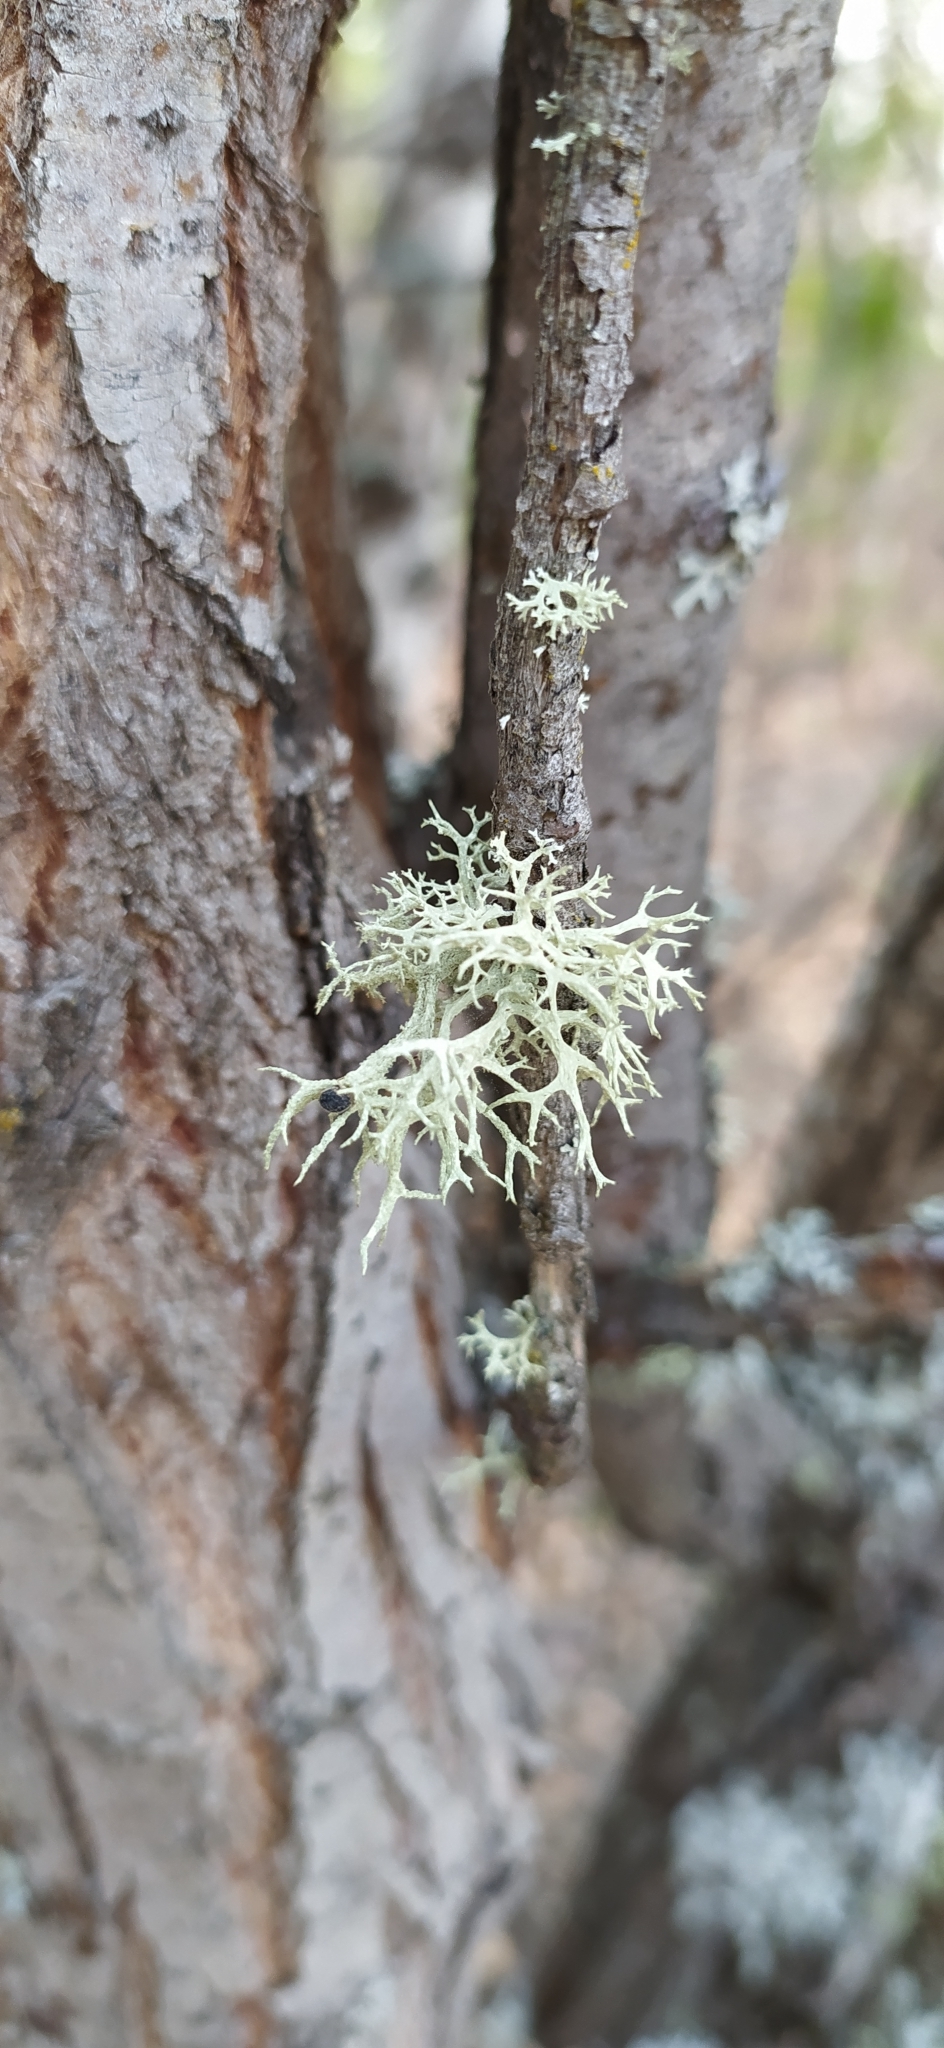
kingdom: Fungi
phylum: Ascomycota
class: Lecanoromycetes
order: Lecanorales
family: Parmeliaceae
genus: Evernia
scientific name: Evernia mesomorpha
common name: Boreal oak moss lichen
